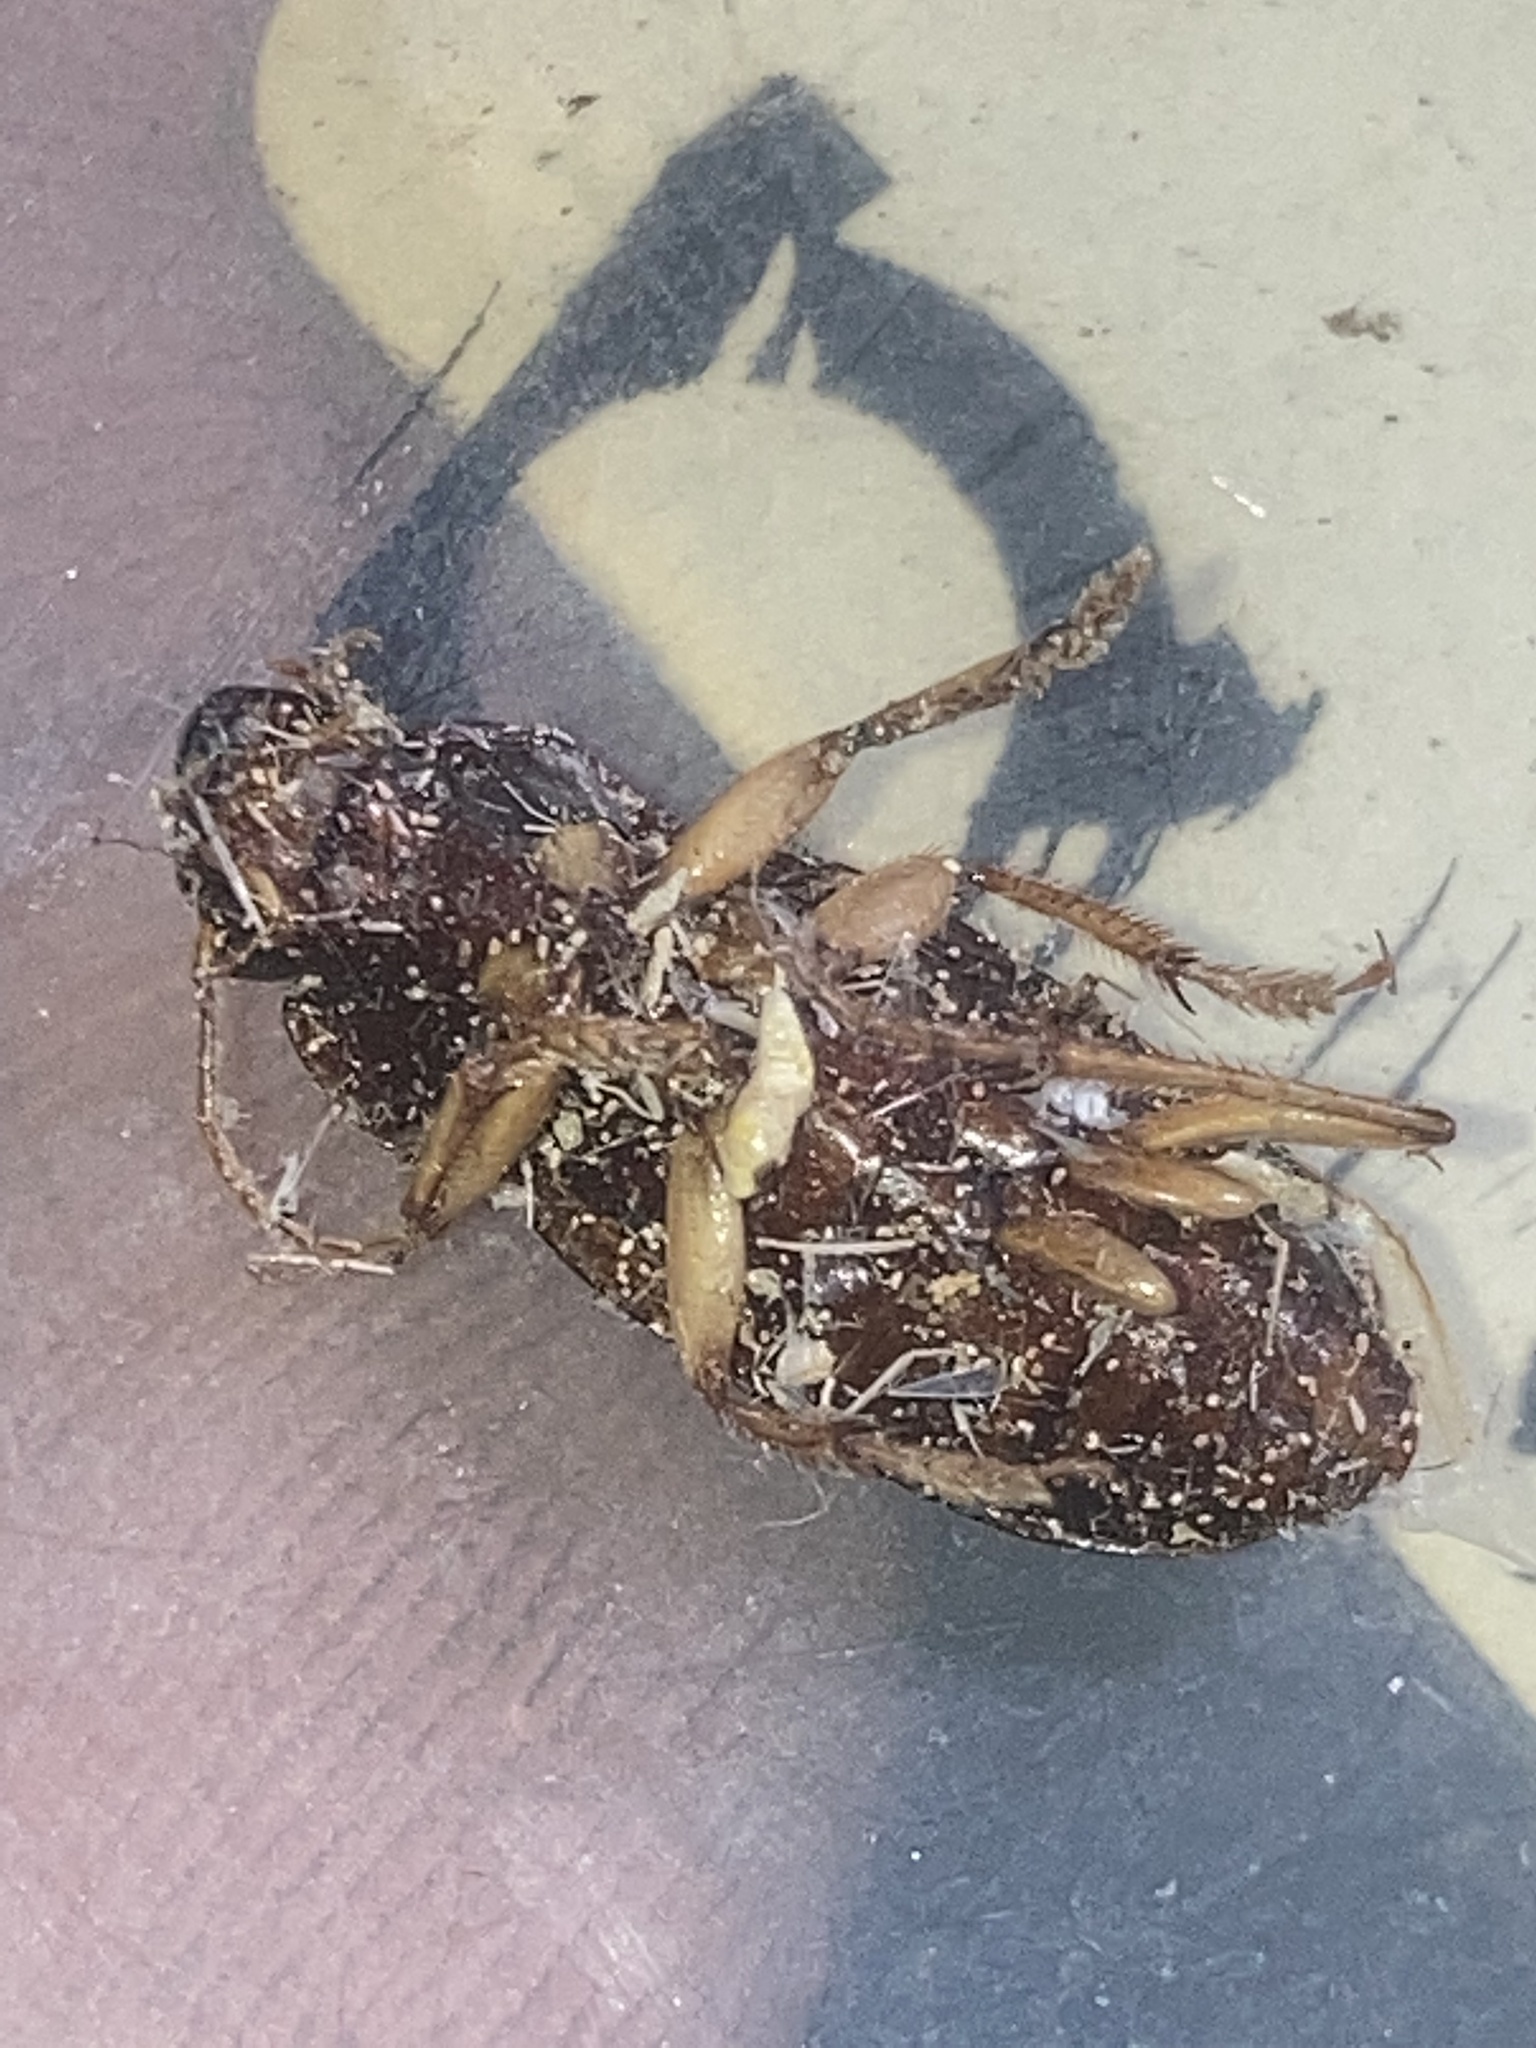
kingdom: Animalia
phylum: Arthropoda
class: Insecta
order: Coleoptera
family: Carabidae
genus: Harpalus
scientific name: Harpalus pensylvanicus
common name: Pennsylvania dingy ground beetle
